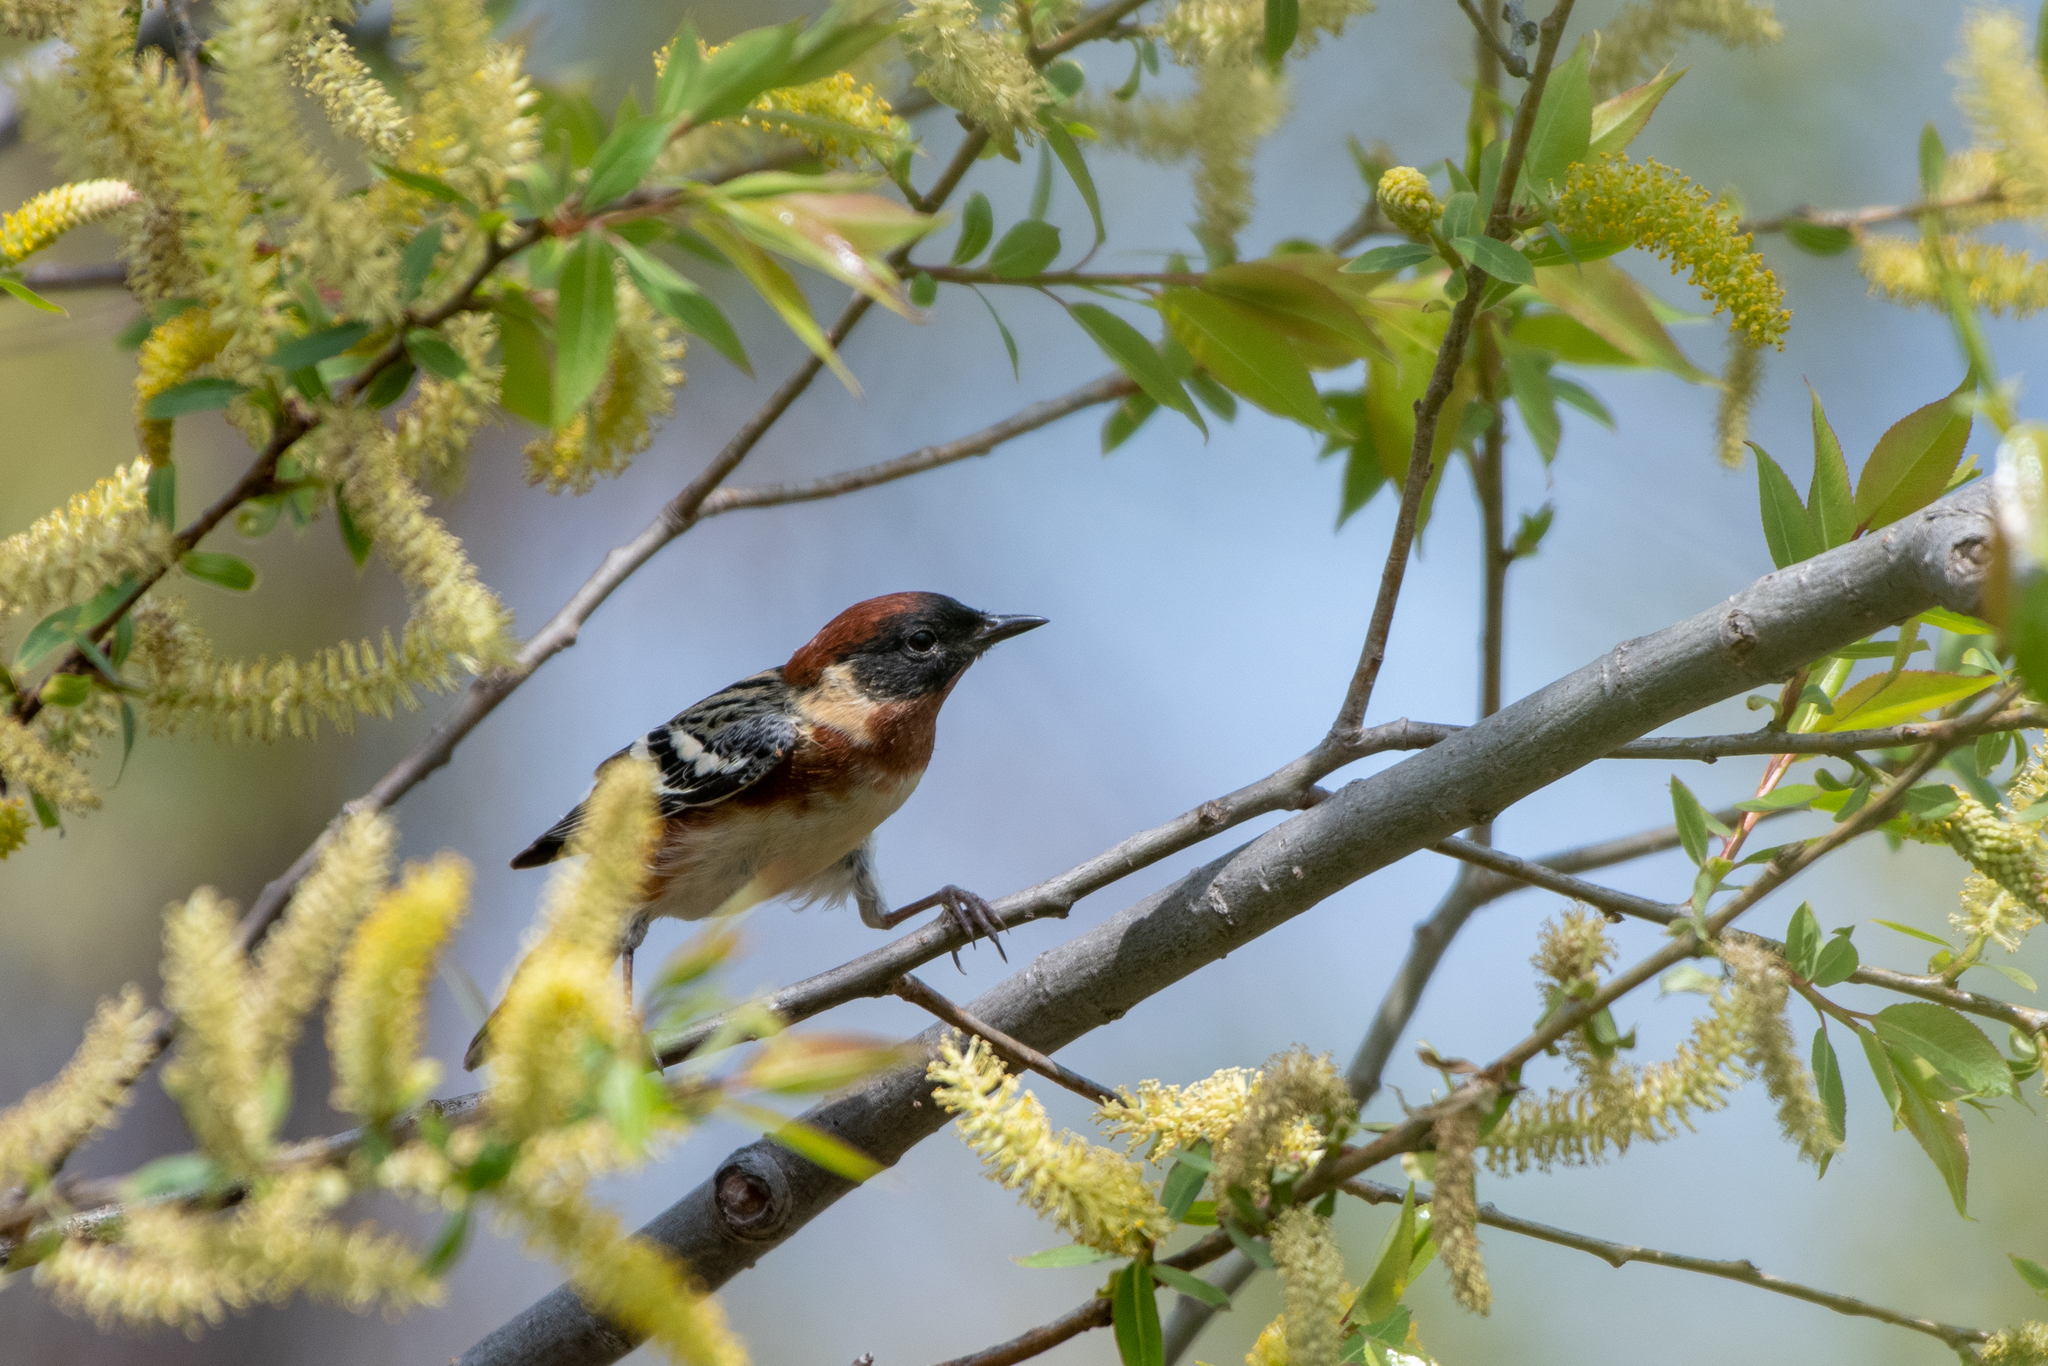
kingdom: Animalia
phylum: Chordata
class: Aves
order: Passeriformes
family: Parulidae
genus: Setophaga
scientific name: Setophaga castanea
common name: Bay-breasted warbler
